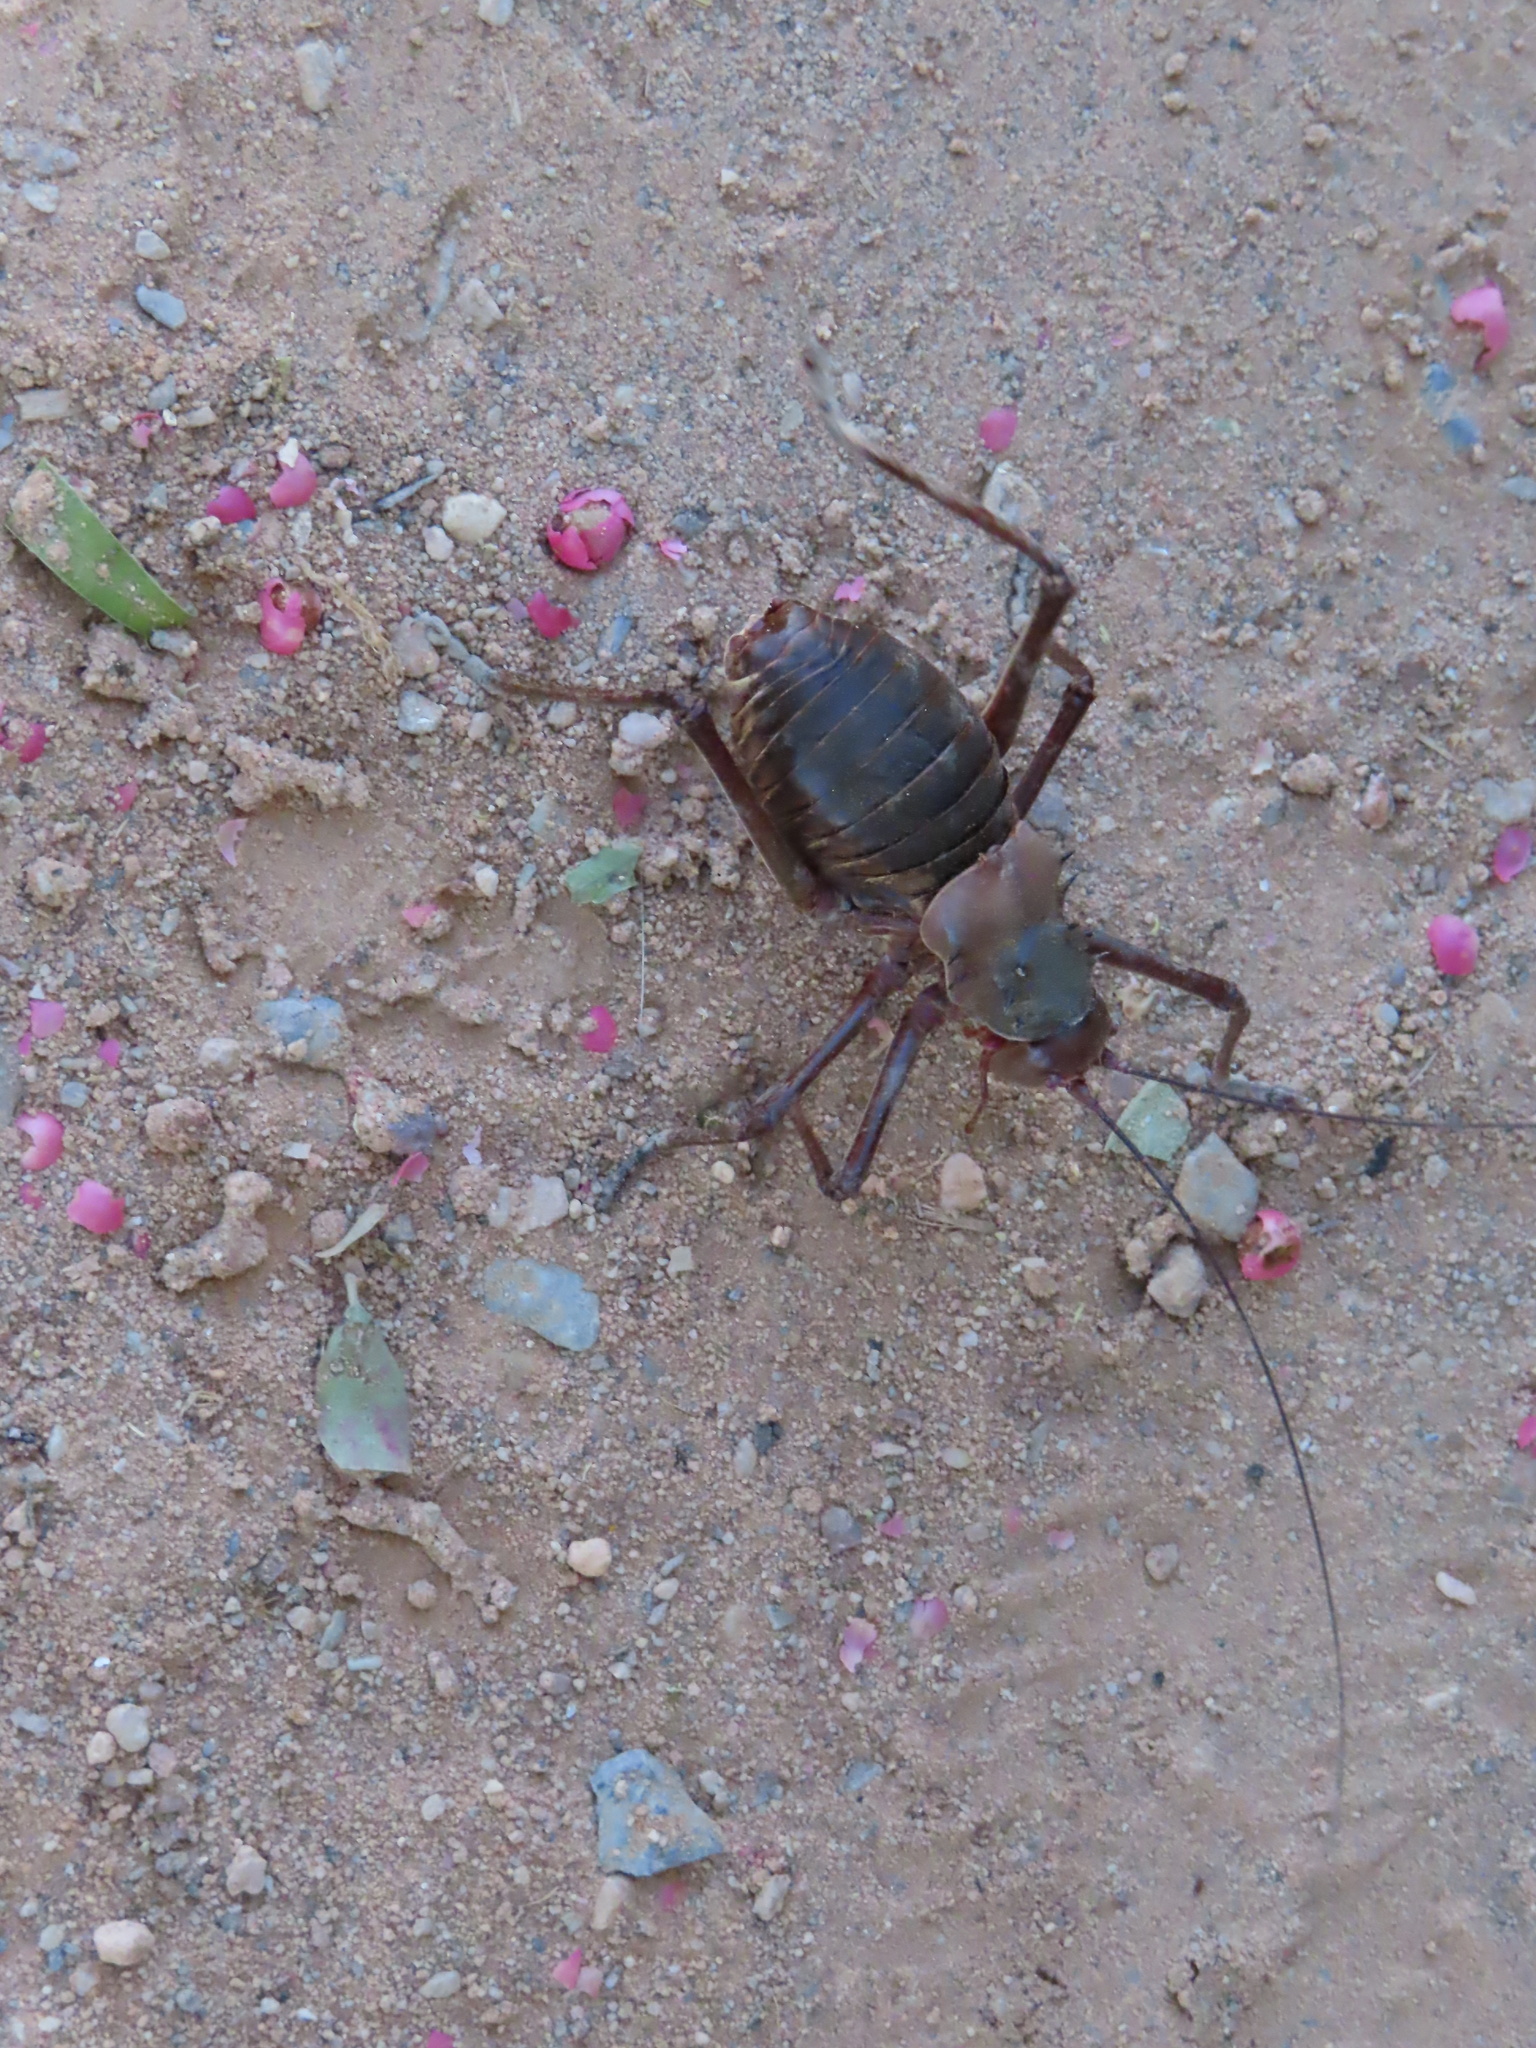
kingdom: Animalia
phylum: Arthropoda
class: Insecta
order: Orthoptera
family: Tettigoniidae
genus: Acanthoplus
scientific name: Acanthoplus discoidalis
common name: Armoured katydid
